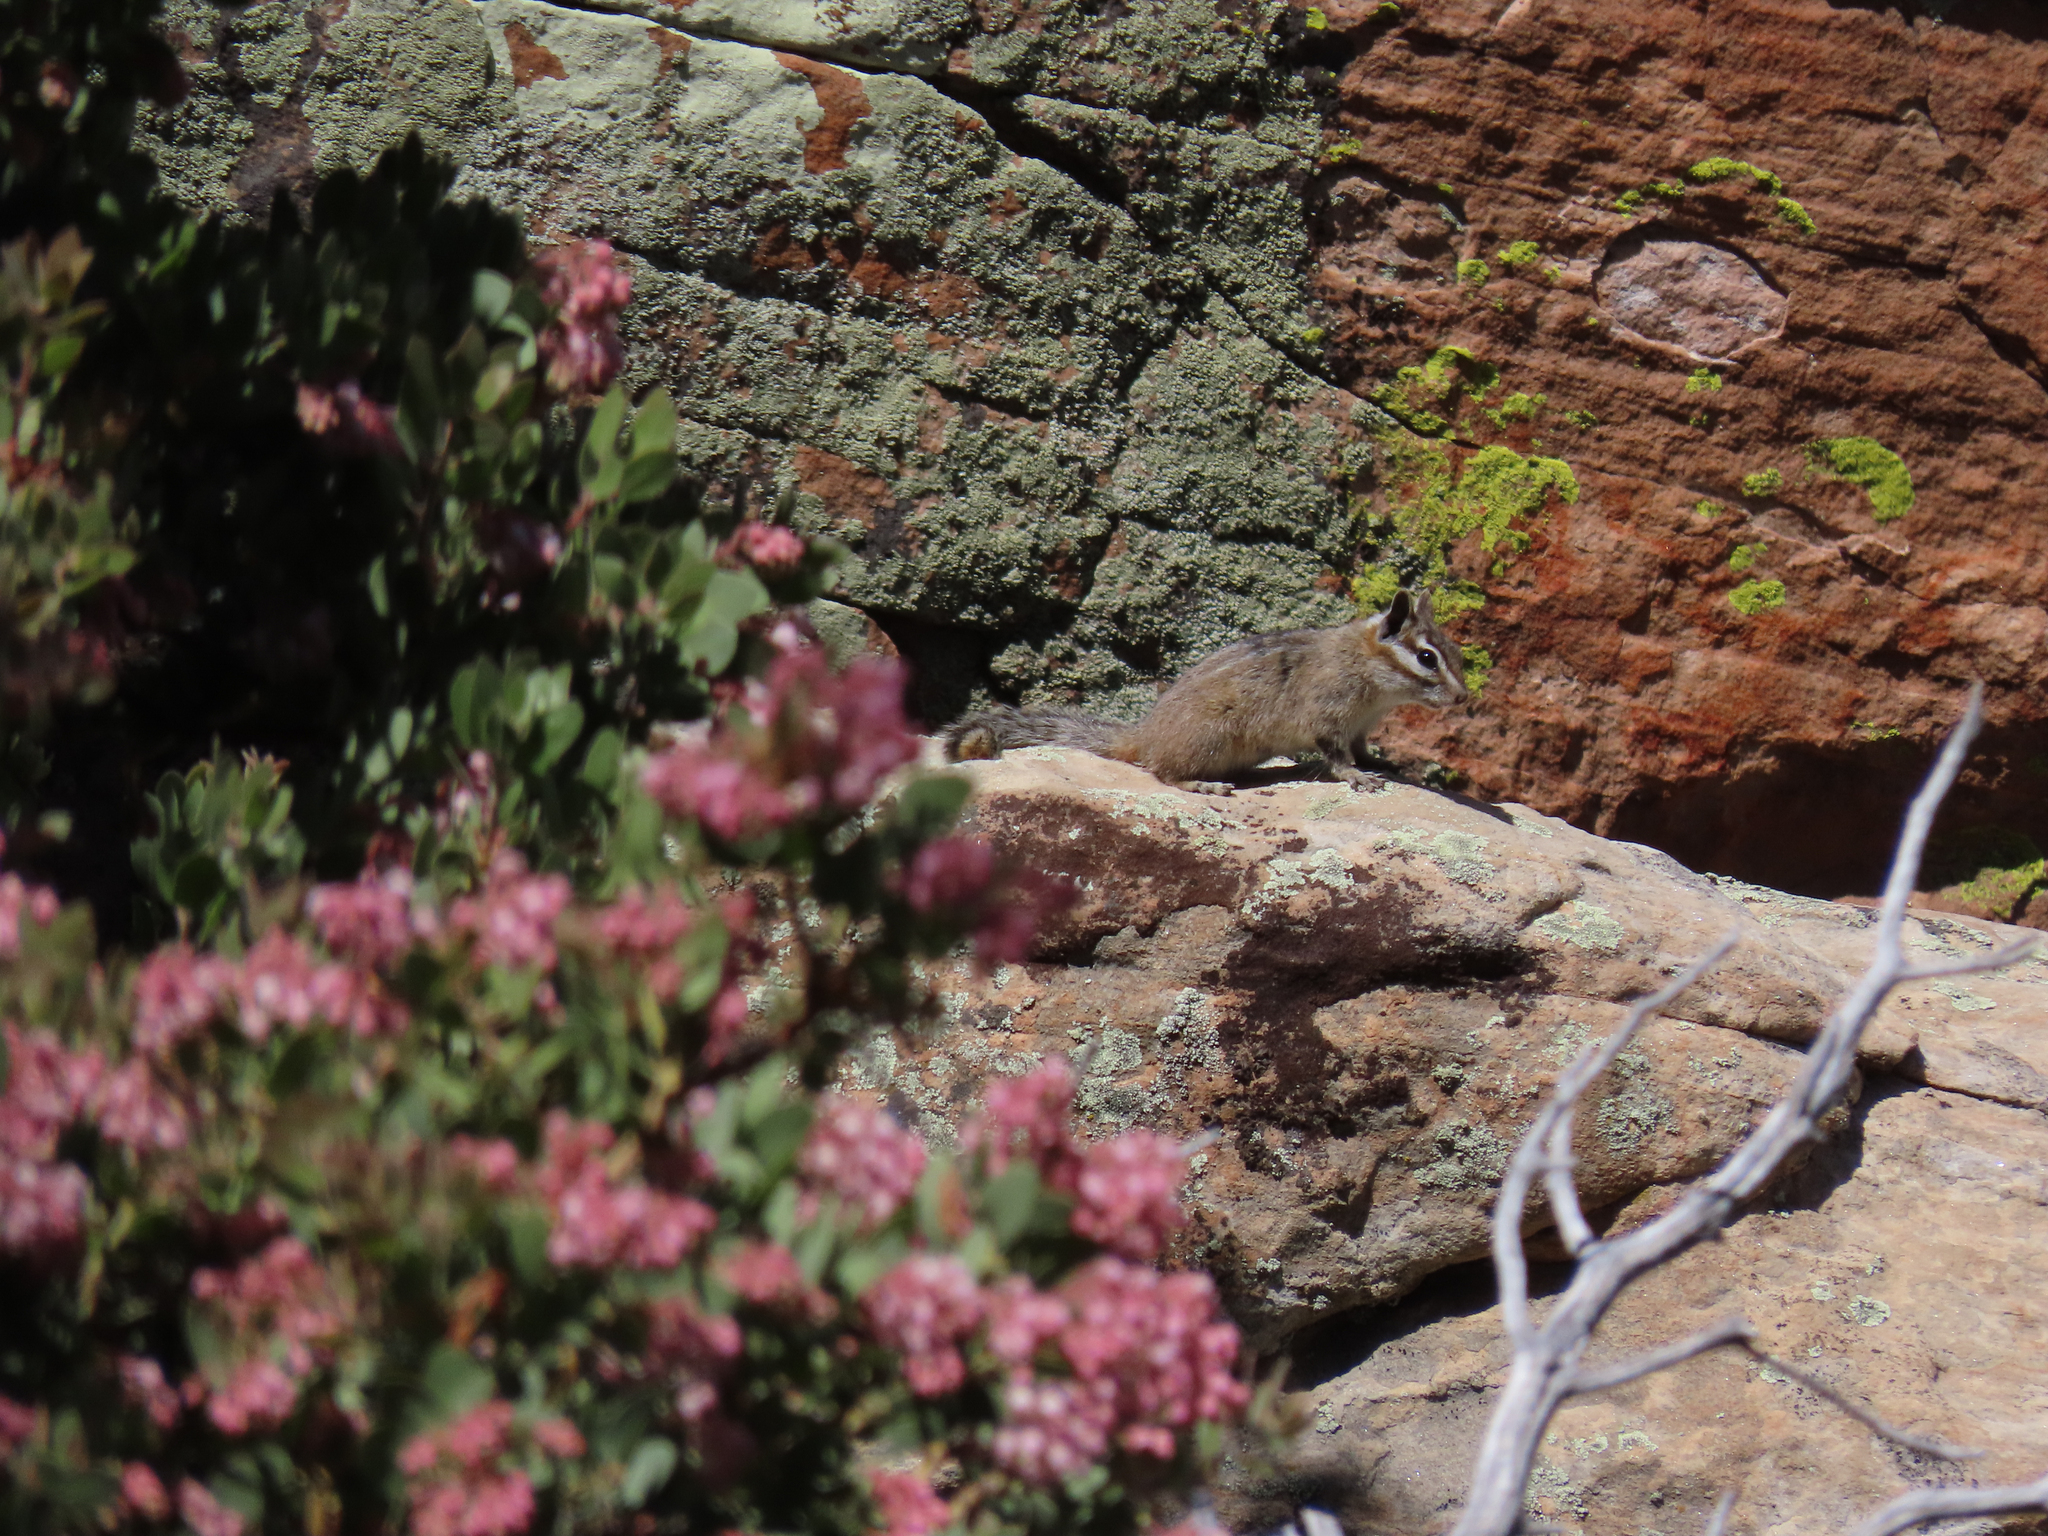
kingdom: Animalia
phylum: Chordata
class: Mammalia
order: Rodentia
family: Sciuridae
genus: Tamias
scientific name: Tamias dorsalis
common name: Cliff chipmunk
